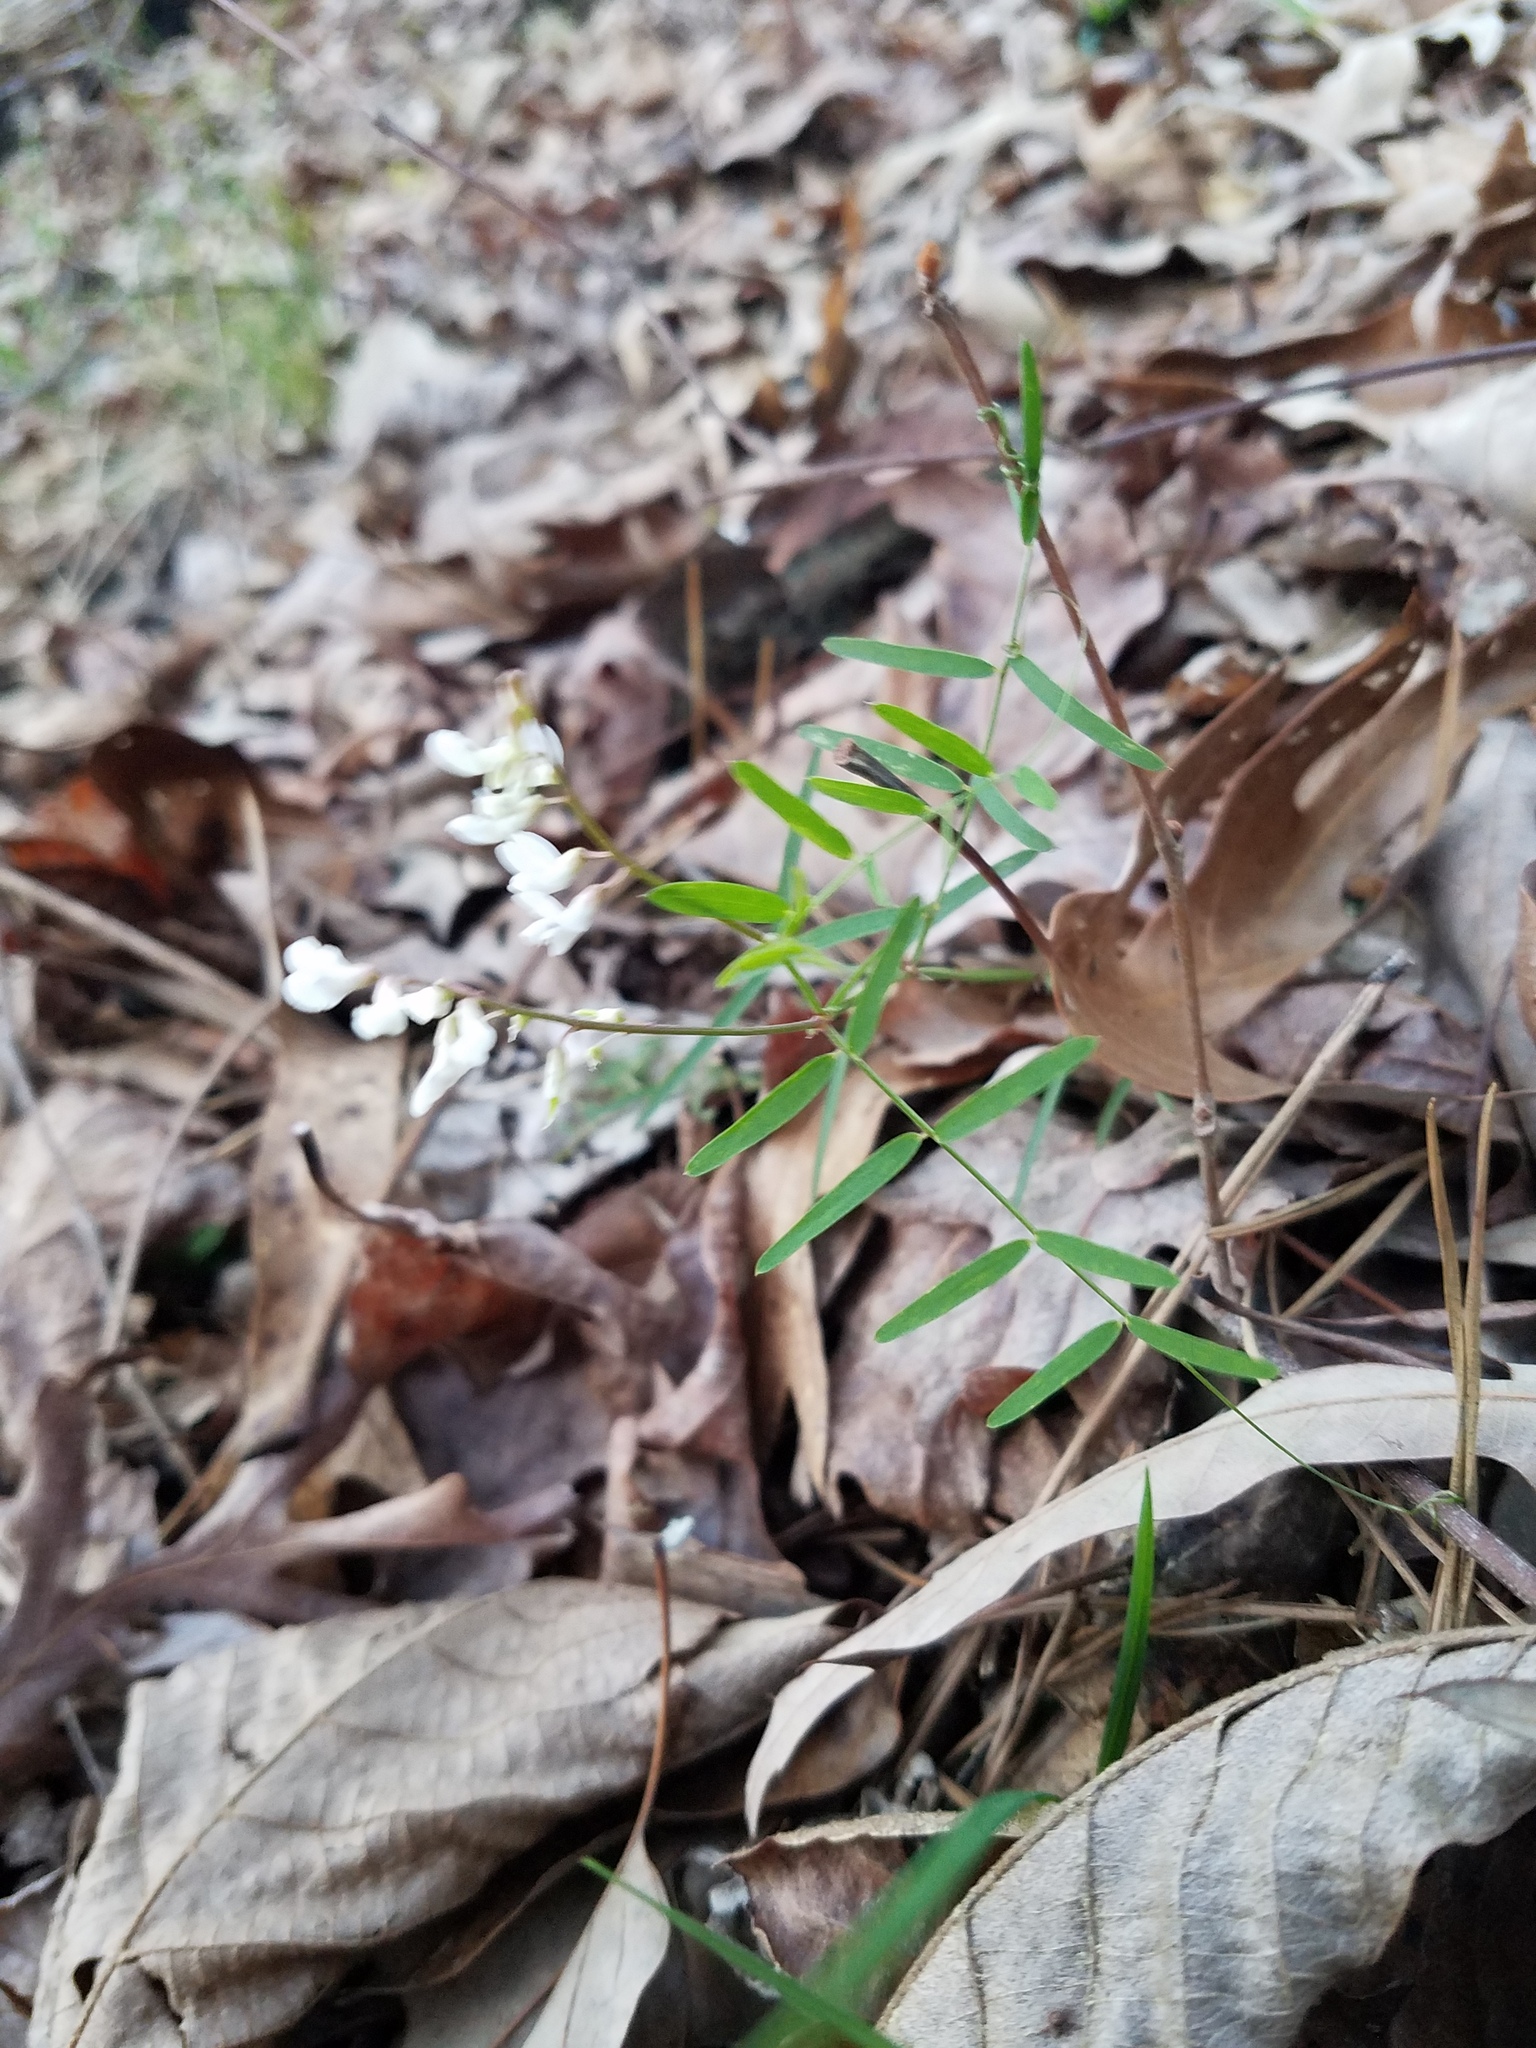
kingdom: Plantae
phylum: Tracheophyta
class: Magnoliopsida
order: Fabales
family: Fabaceae
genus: Vicia
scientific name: Vicia caroliniana
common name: Carolina vetch
